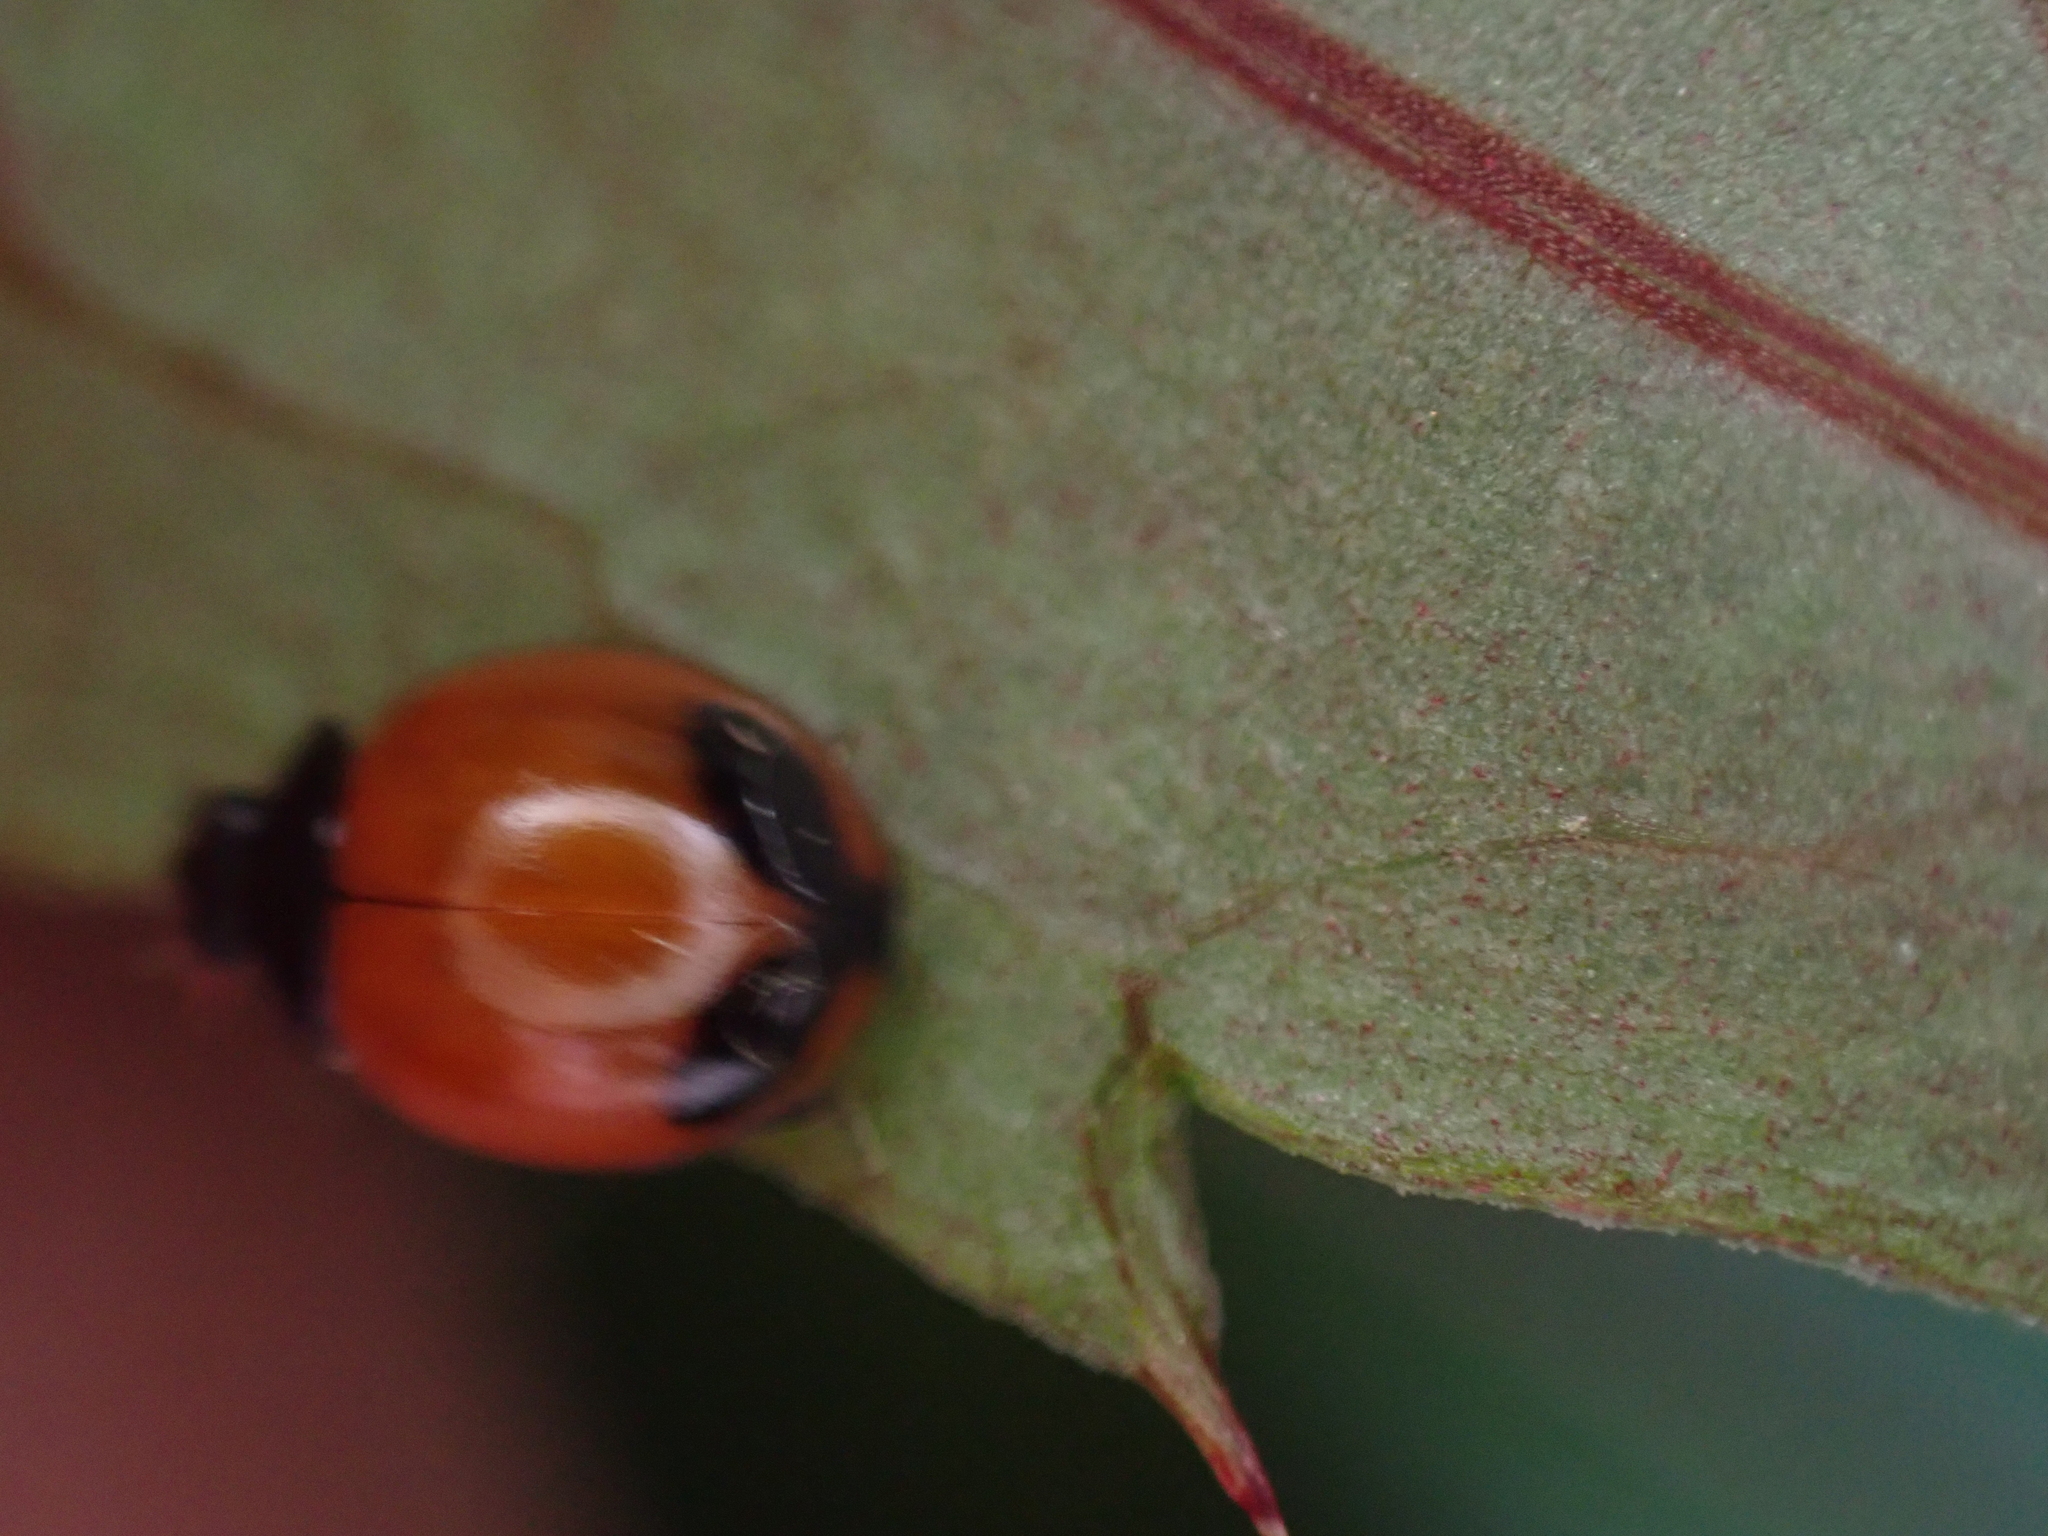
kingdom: Animalia
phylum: Arthropoda
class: Insecta
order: Coleoptera
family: Coccinellidae
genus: Exochomus
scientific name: Exochomus childreni
